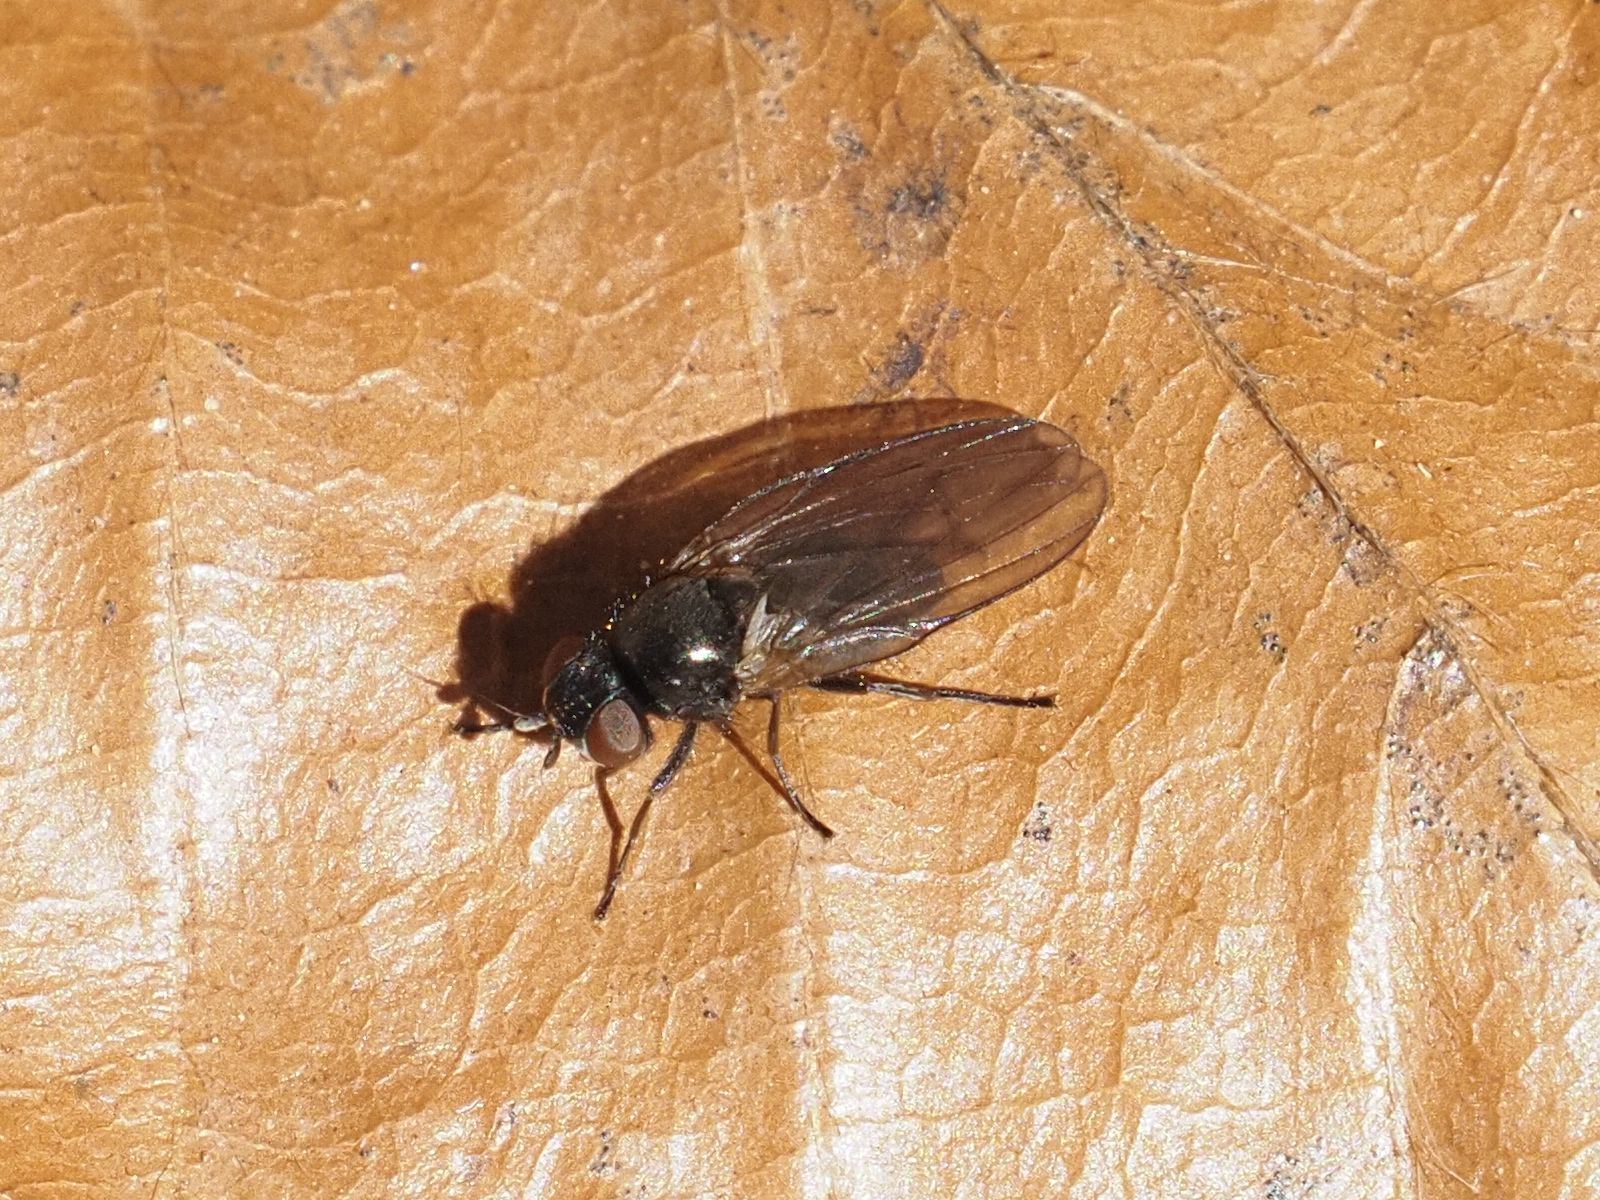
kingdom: Animalia
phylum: Arthropoda
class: Insecta
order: Diptera
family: Lonchaeidae
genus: Earomyia
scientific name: Earomyia lonchaeoides
